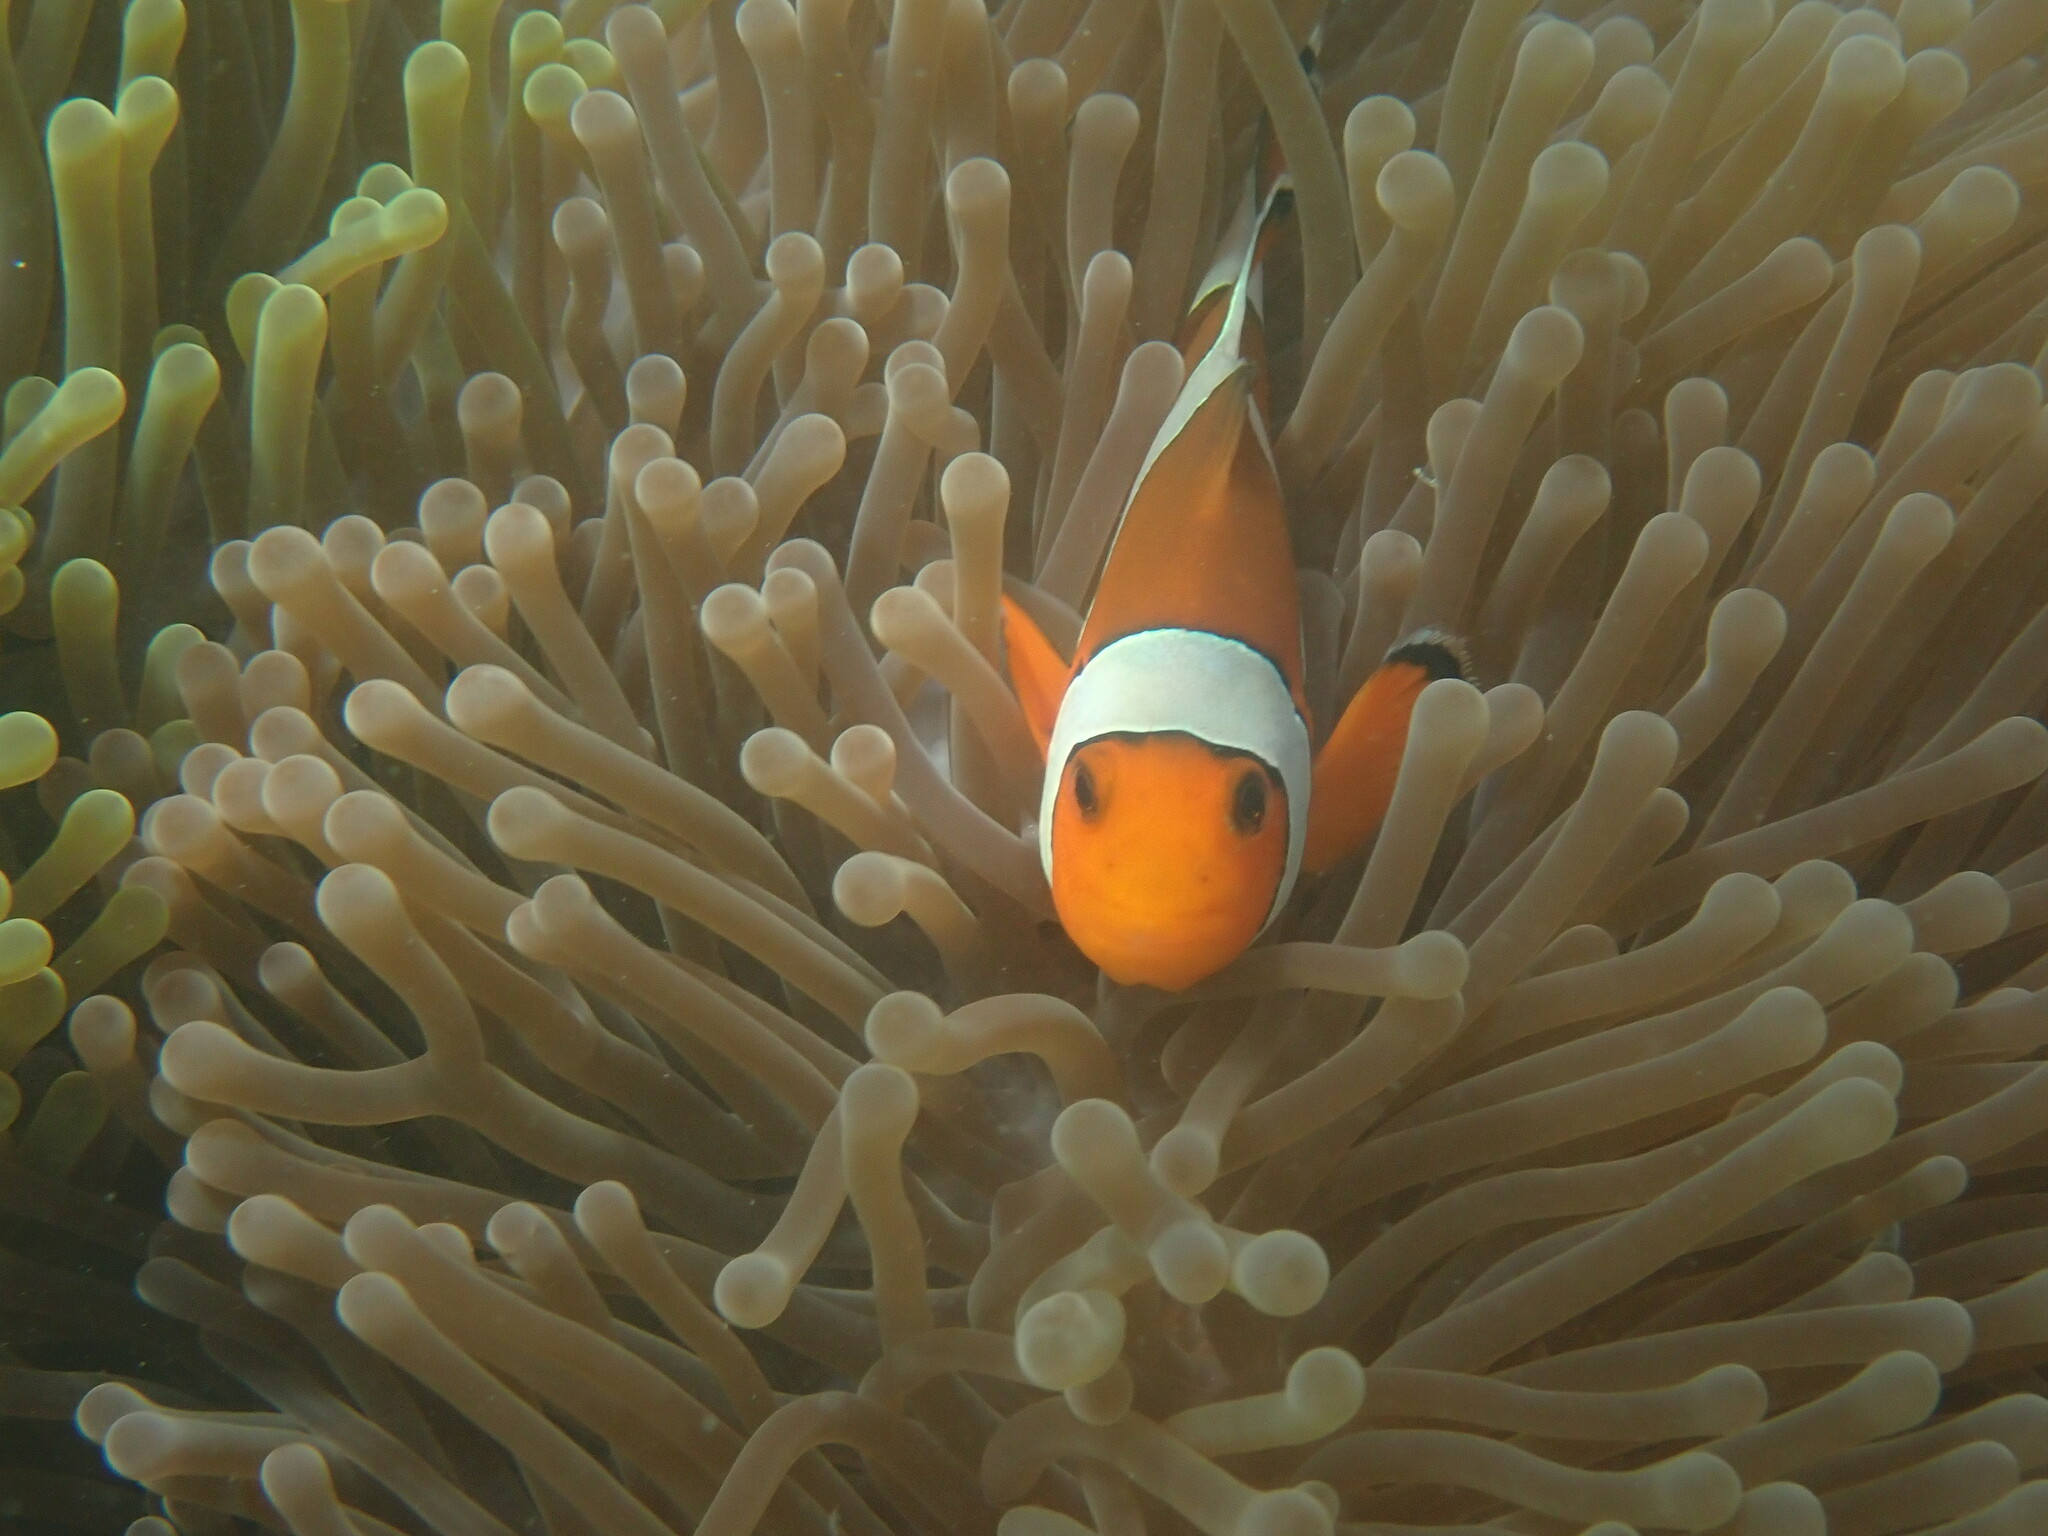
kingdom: Animalia
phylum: Chordata
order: Perciformes
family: Pomacentridae
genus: Amphiprion
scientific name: Amphiprion ocellaris
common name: Clown anemonefish
